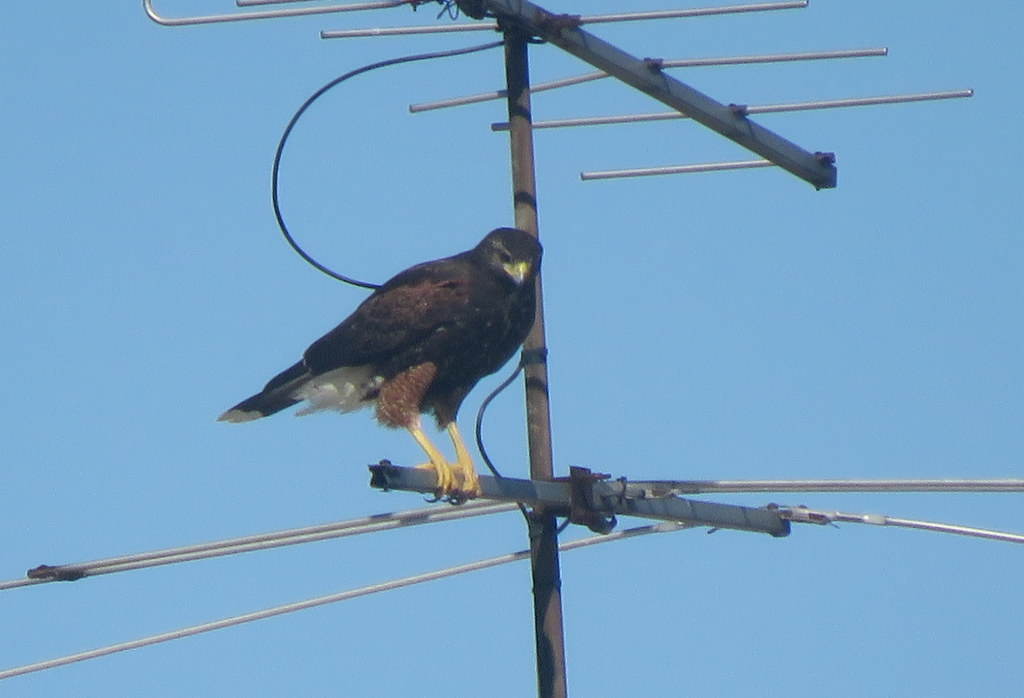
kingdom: Animalia
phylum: Chordata
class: Aves
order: Accipitriformes
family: Accipitridae
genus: Parabuteo
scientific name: Parabuteo unicinctus
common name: Harris's hawk
